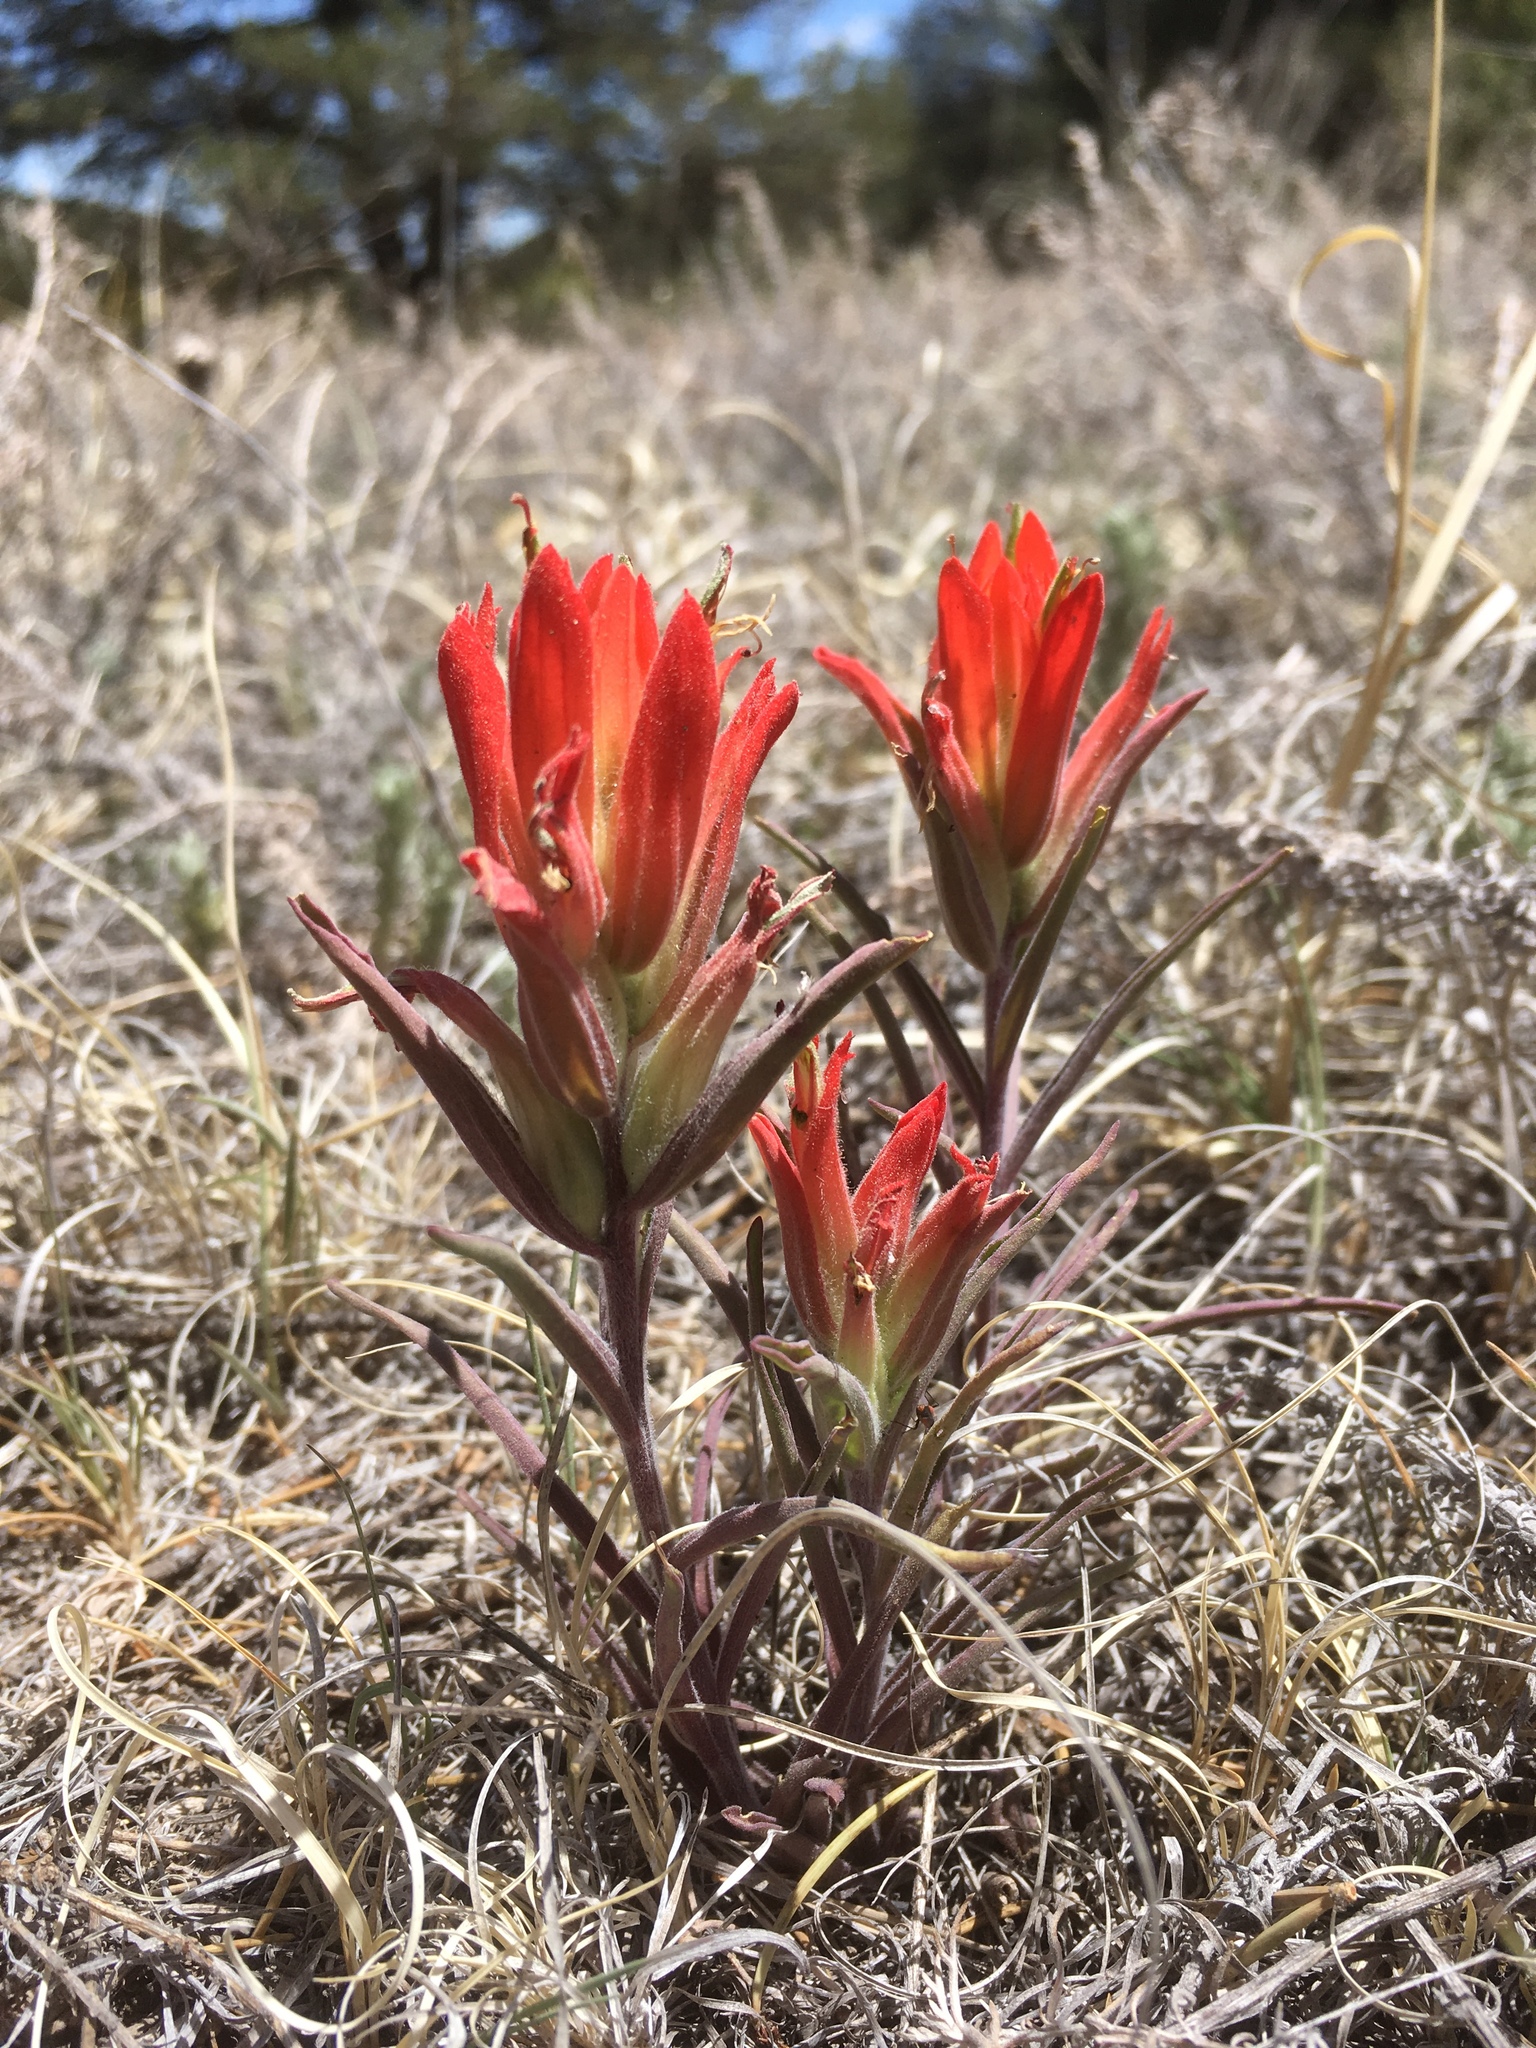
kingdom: Plantae
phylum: Tracheophyta
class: Magnoliopsida
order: Lamiales
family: Orobanchaceae
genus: Castilleja
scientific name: Castilleja integra
